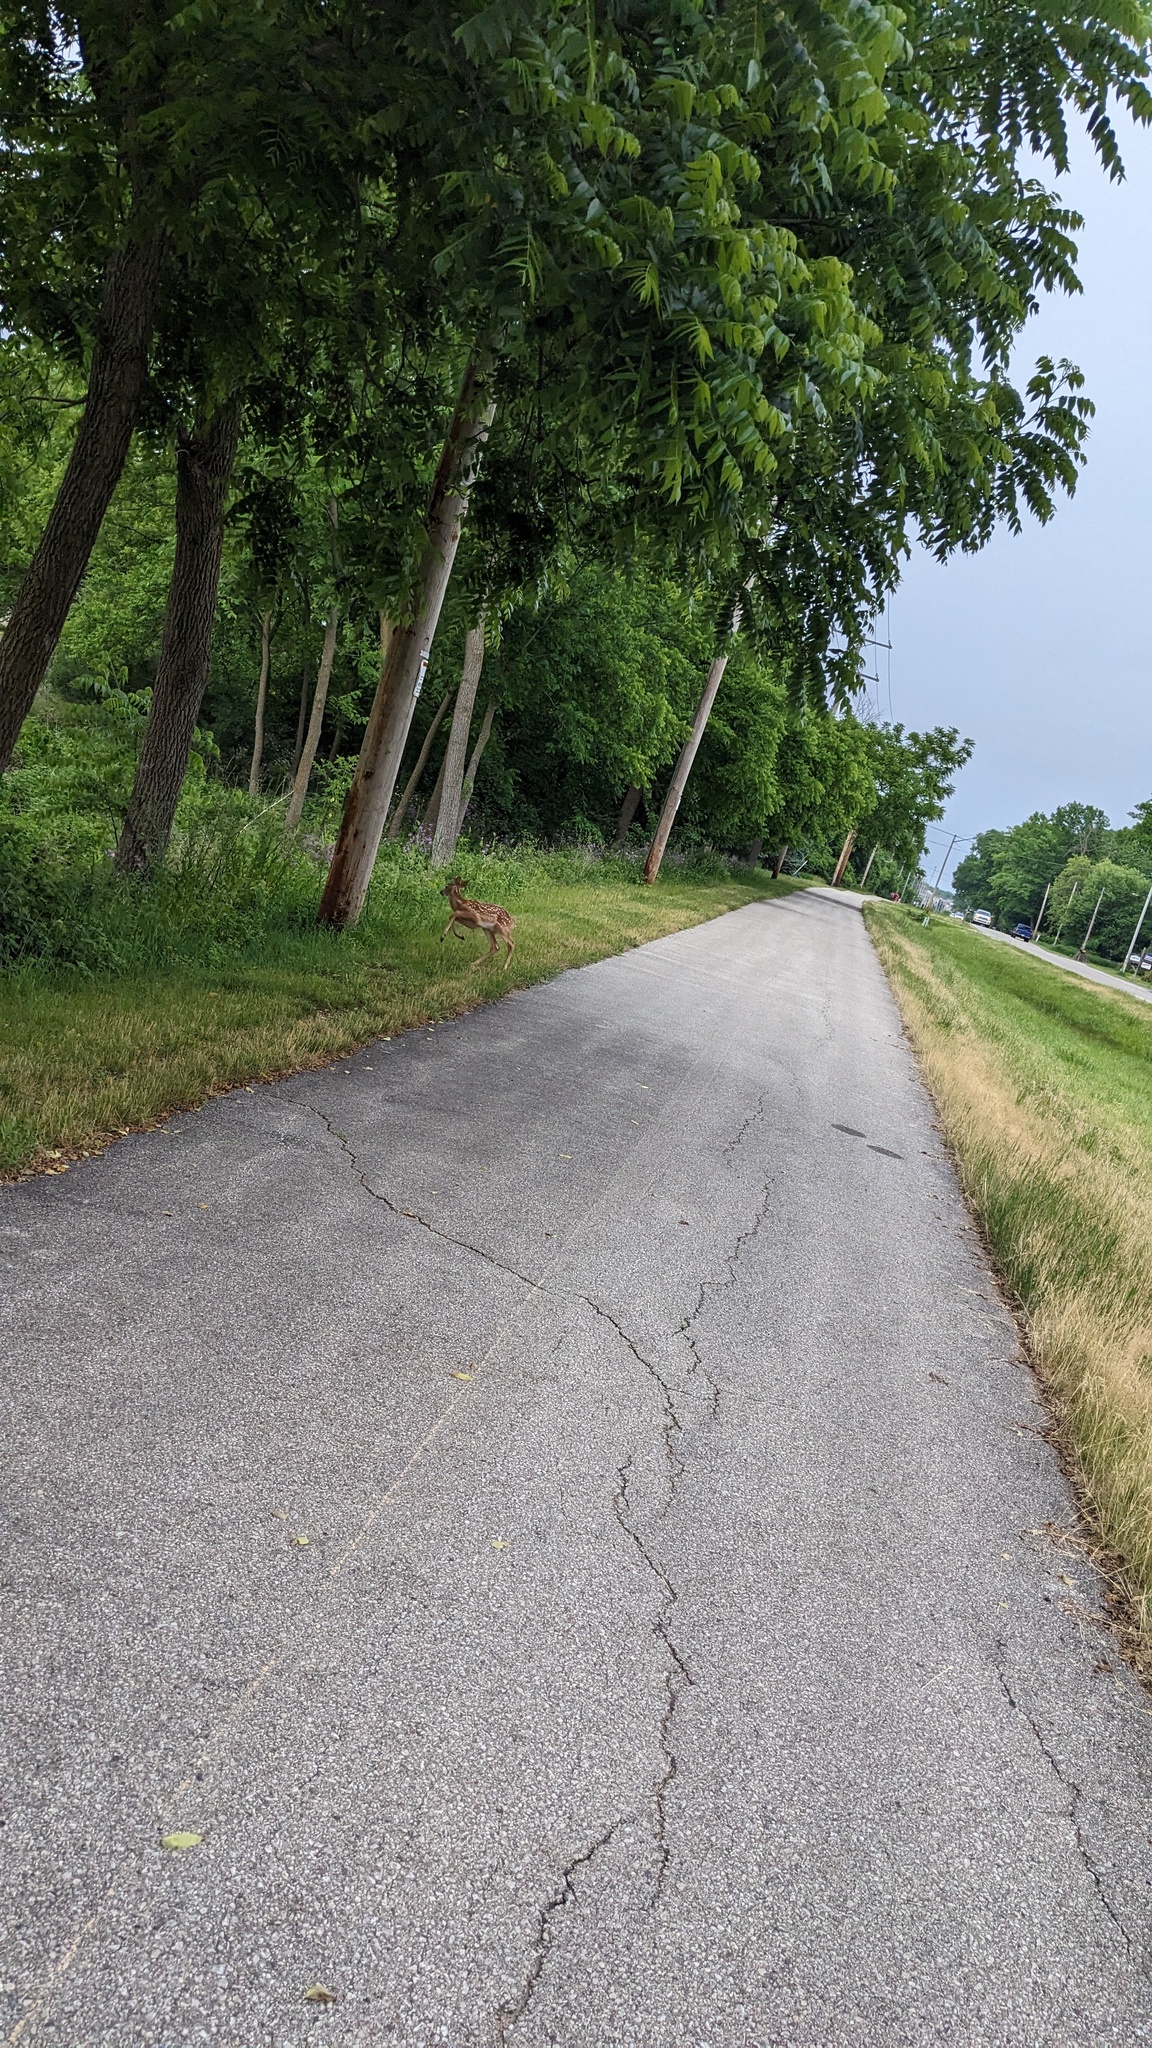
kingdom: Animalia
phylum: Chordata
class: Mammalia
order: Artiodactyla
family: Cervidae
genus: Odocoileus
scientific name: Odocoileus virginianus
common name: White-tailed deer
